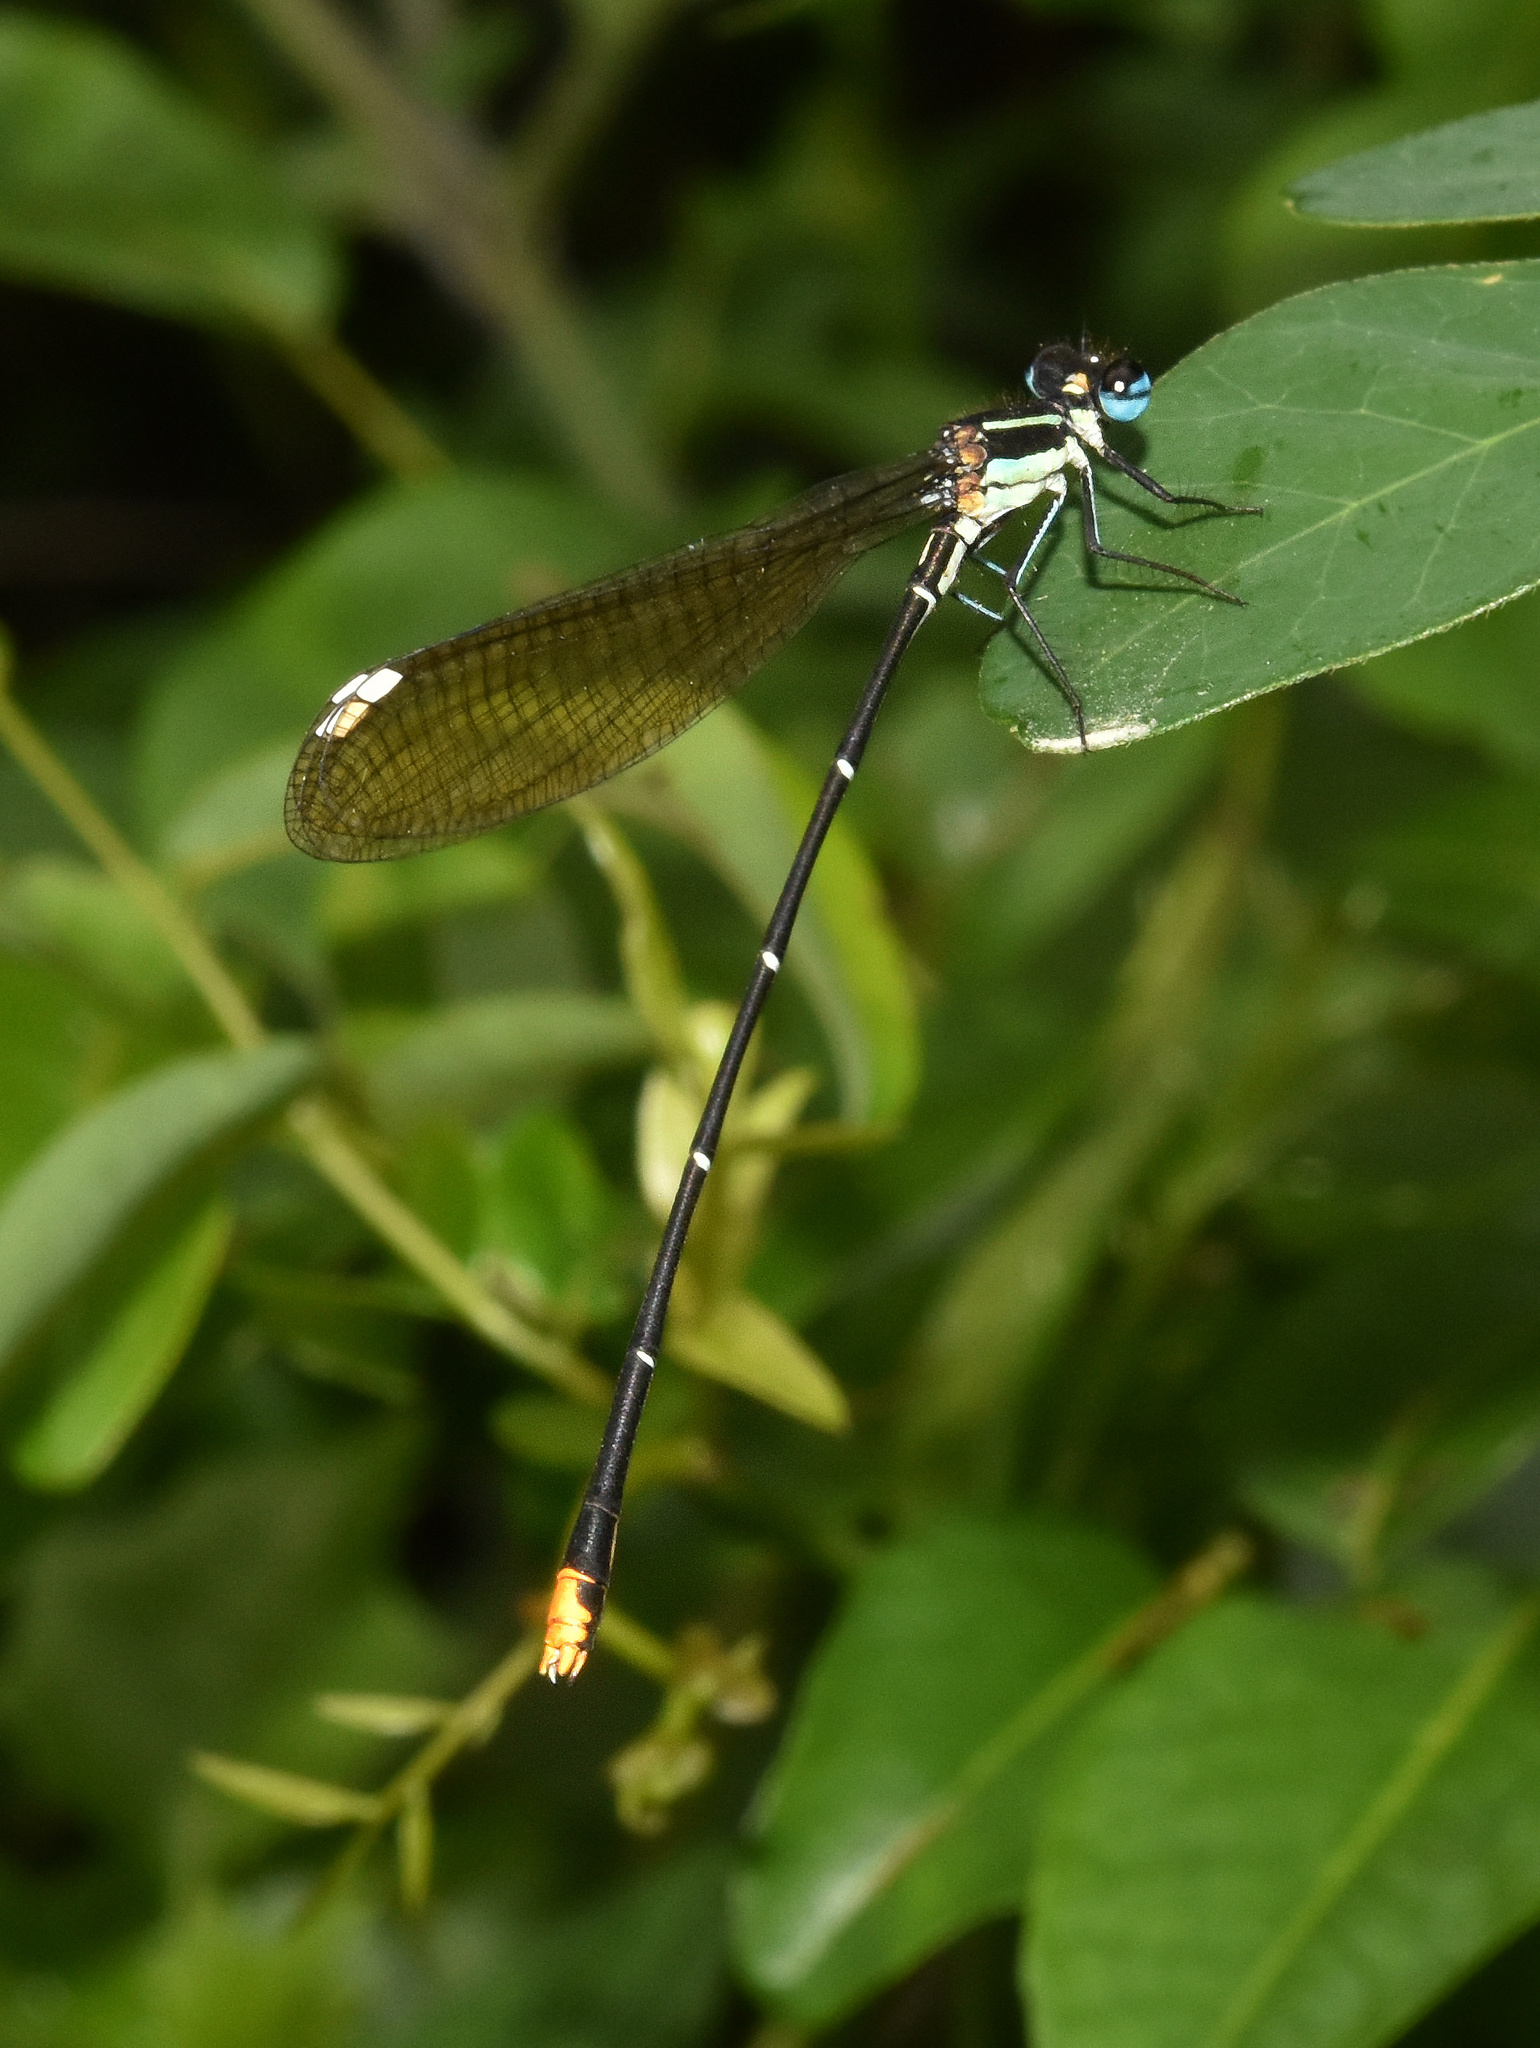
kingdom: Animalia
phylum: Arthropoda
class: Insecta
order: Odonata
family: Platycnemididae
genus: Allocnemis
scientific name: Allocnemis leucosticta
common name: Goldtail
